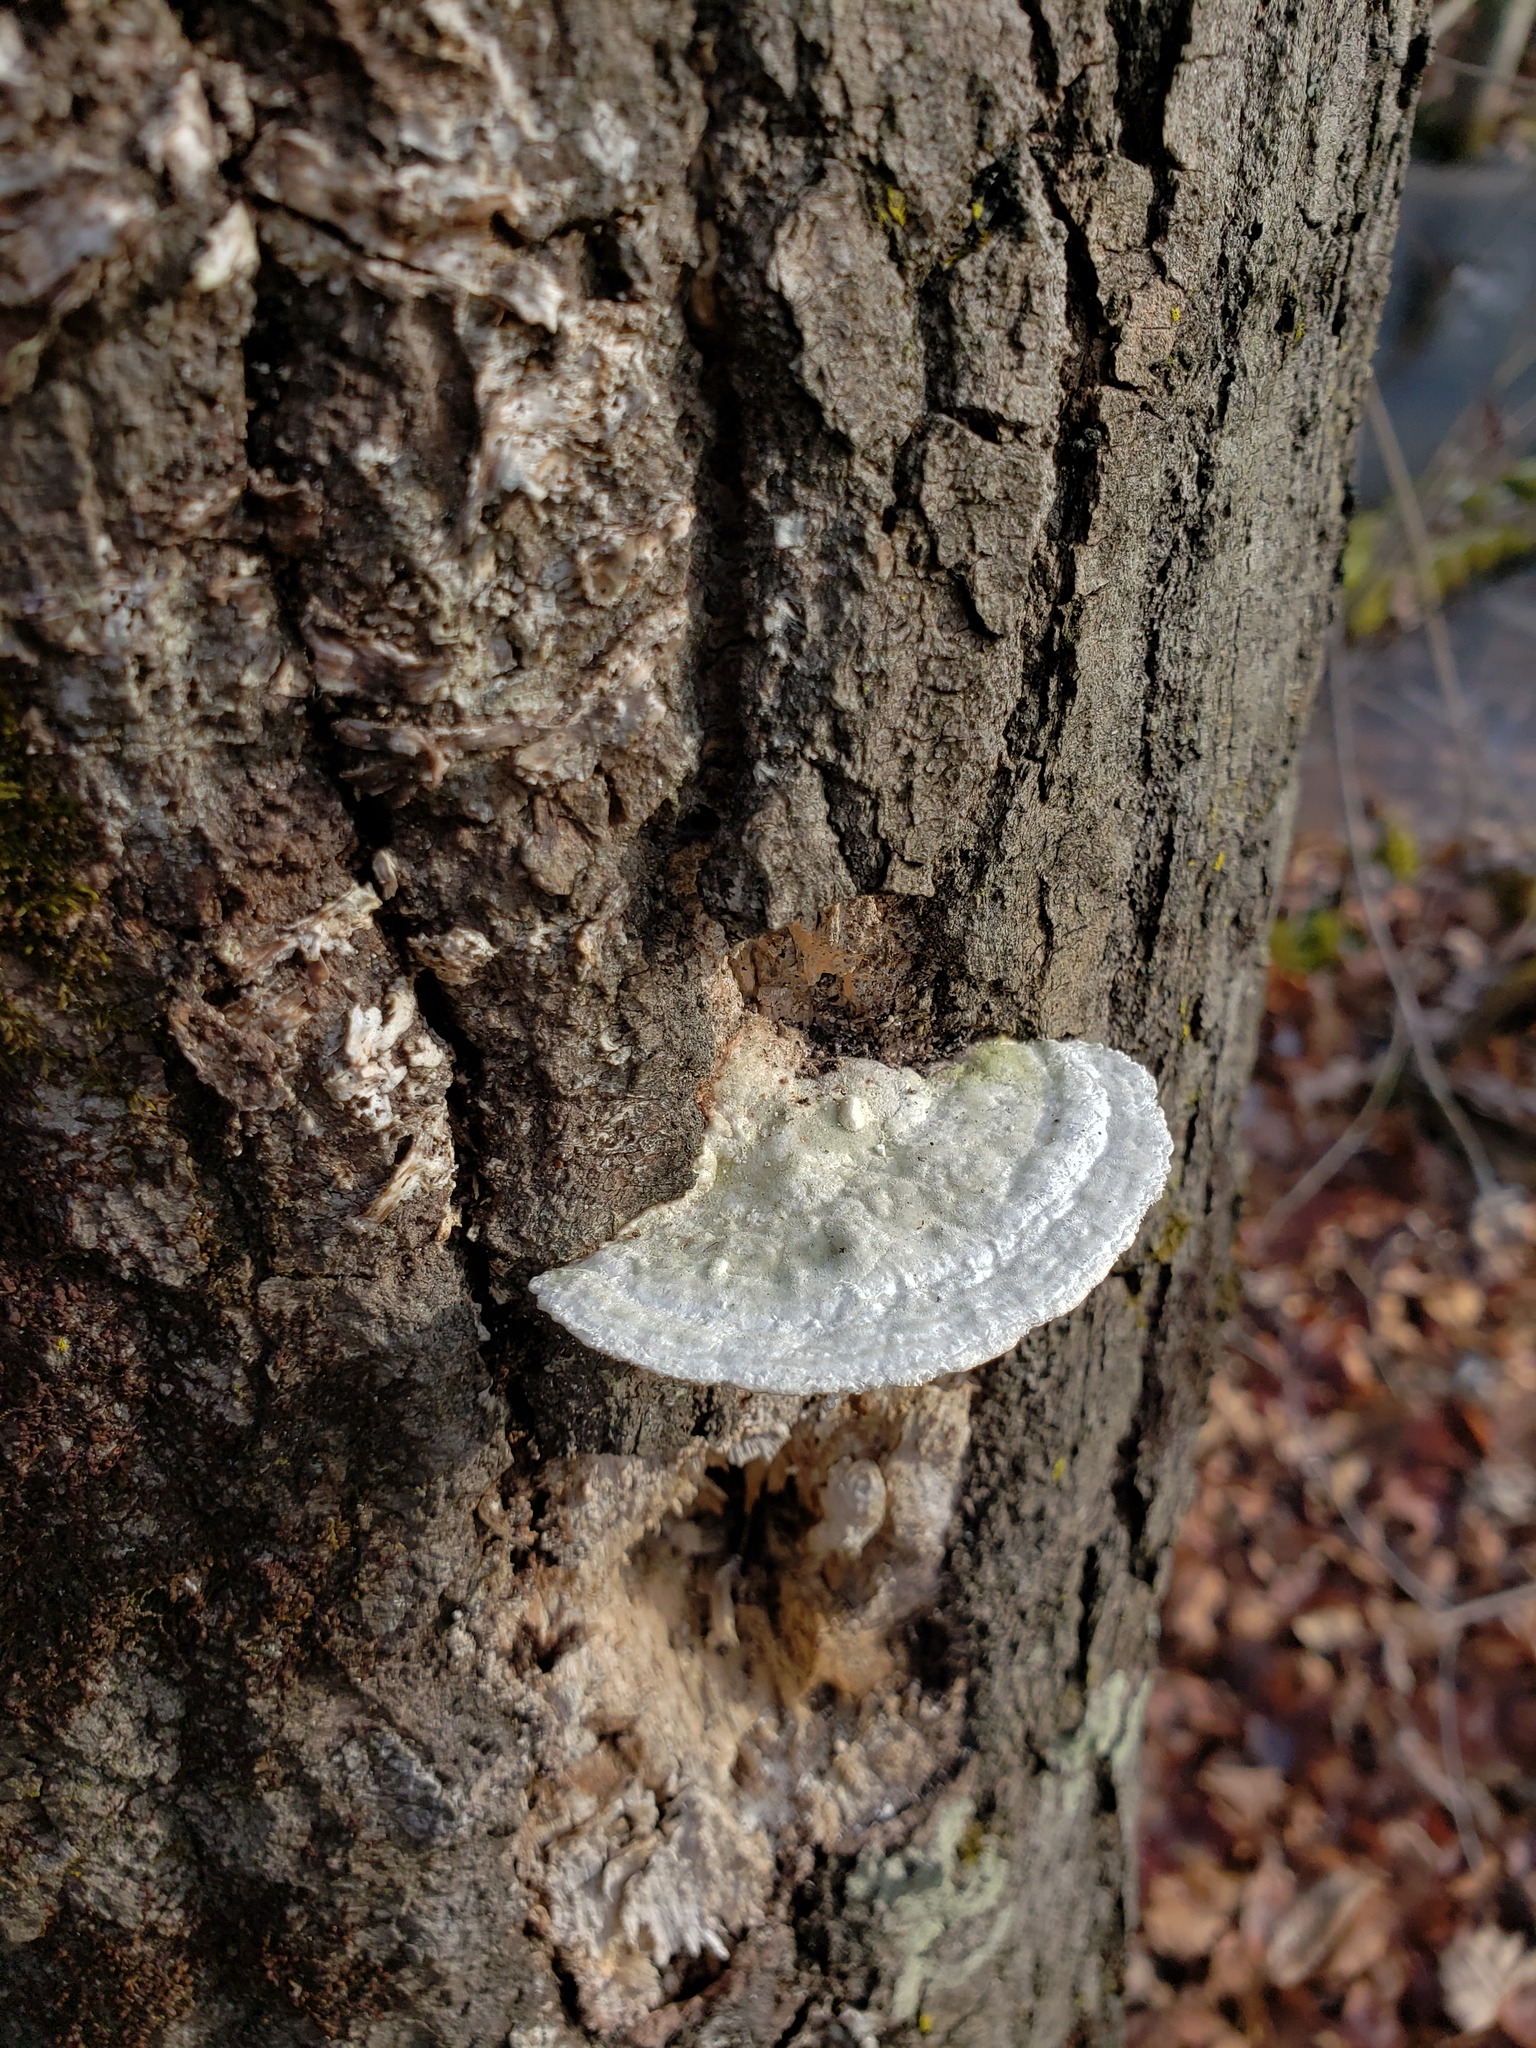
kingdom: Fungi
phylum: Basidiomycota
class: Agaricomycetes
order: Polyporales
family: Polyporaceae
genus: Trametes
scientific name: Trametes gibbosa
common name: Lumpy bracket
